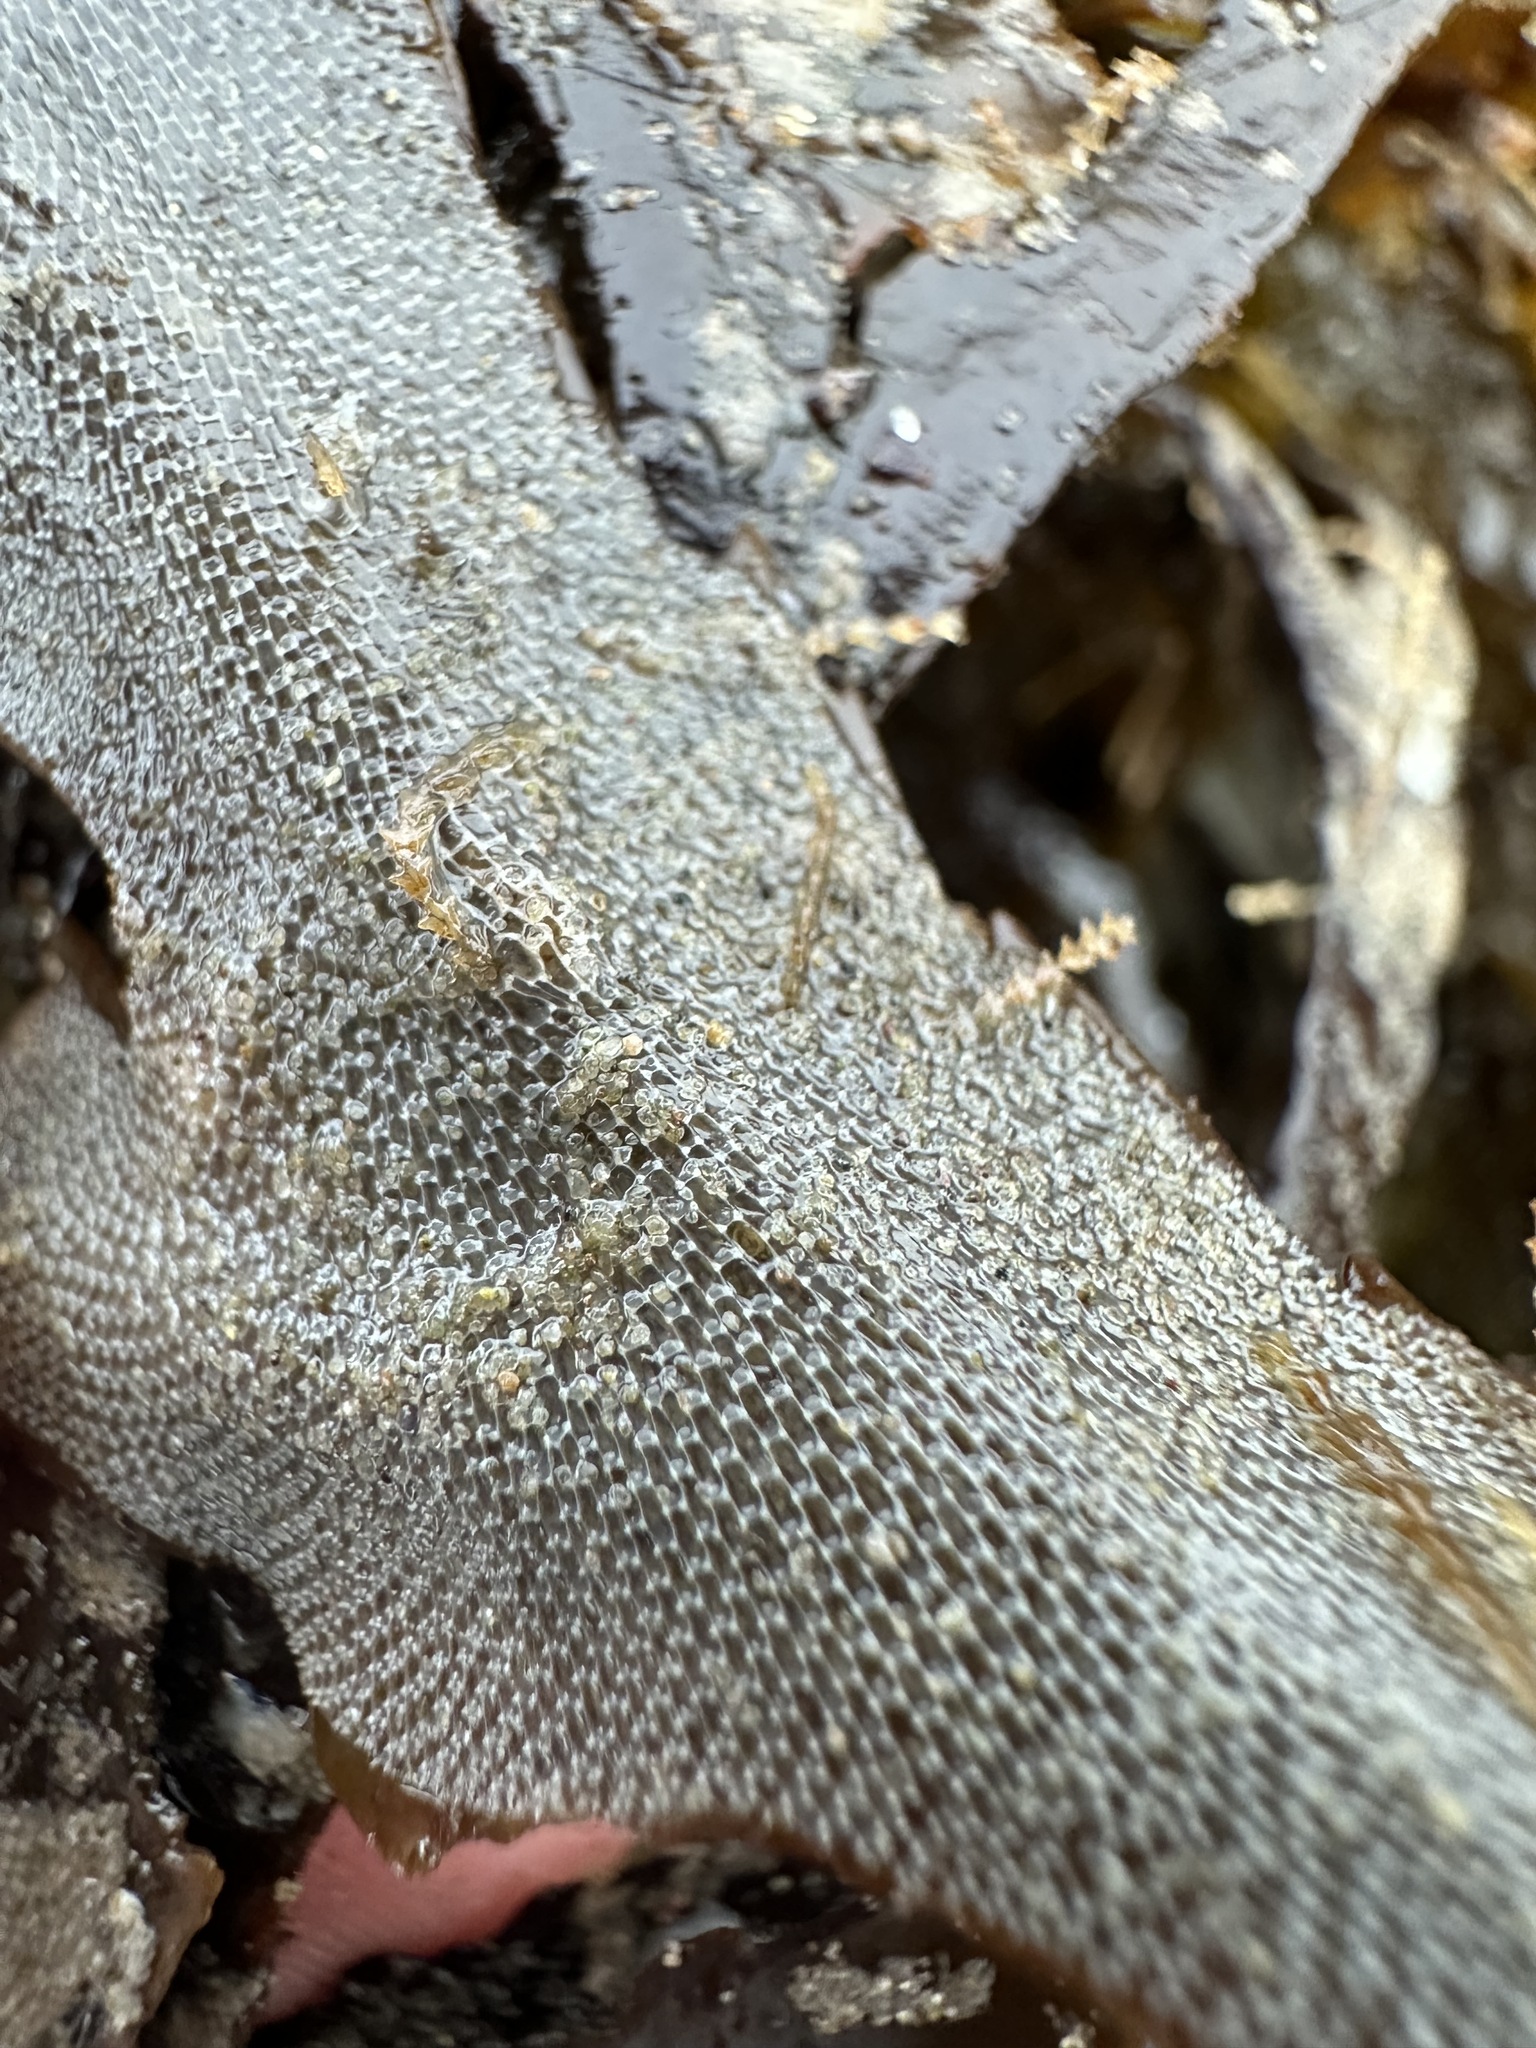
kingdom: Animalia
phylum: Bryozoa
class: Gymnolaemata
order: Cheilostomatida
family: Membraniporidae
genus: Membranipora
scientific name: Membranipora membranacea
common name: Sea mat
